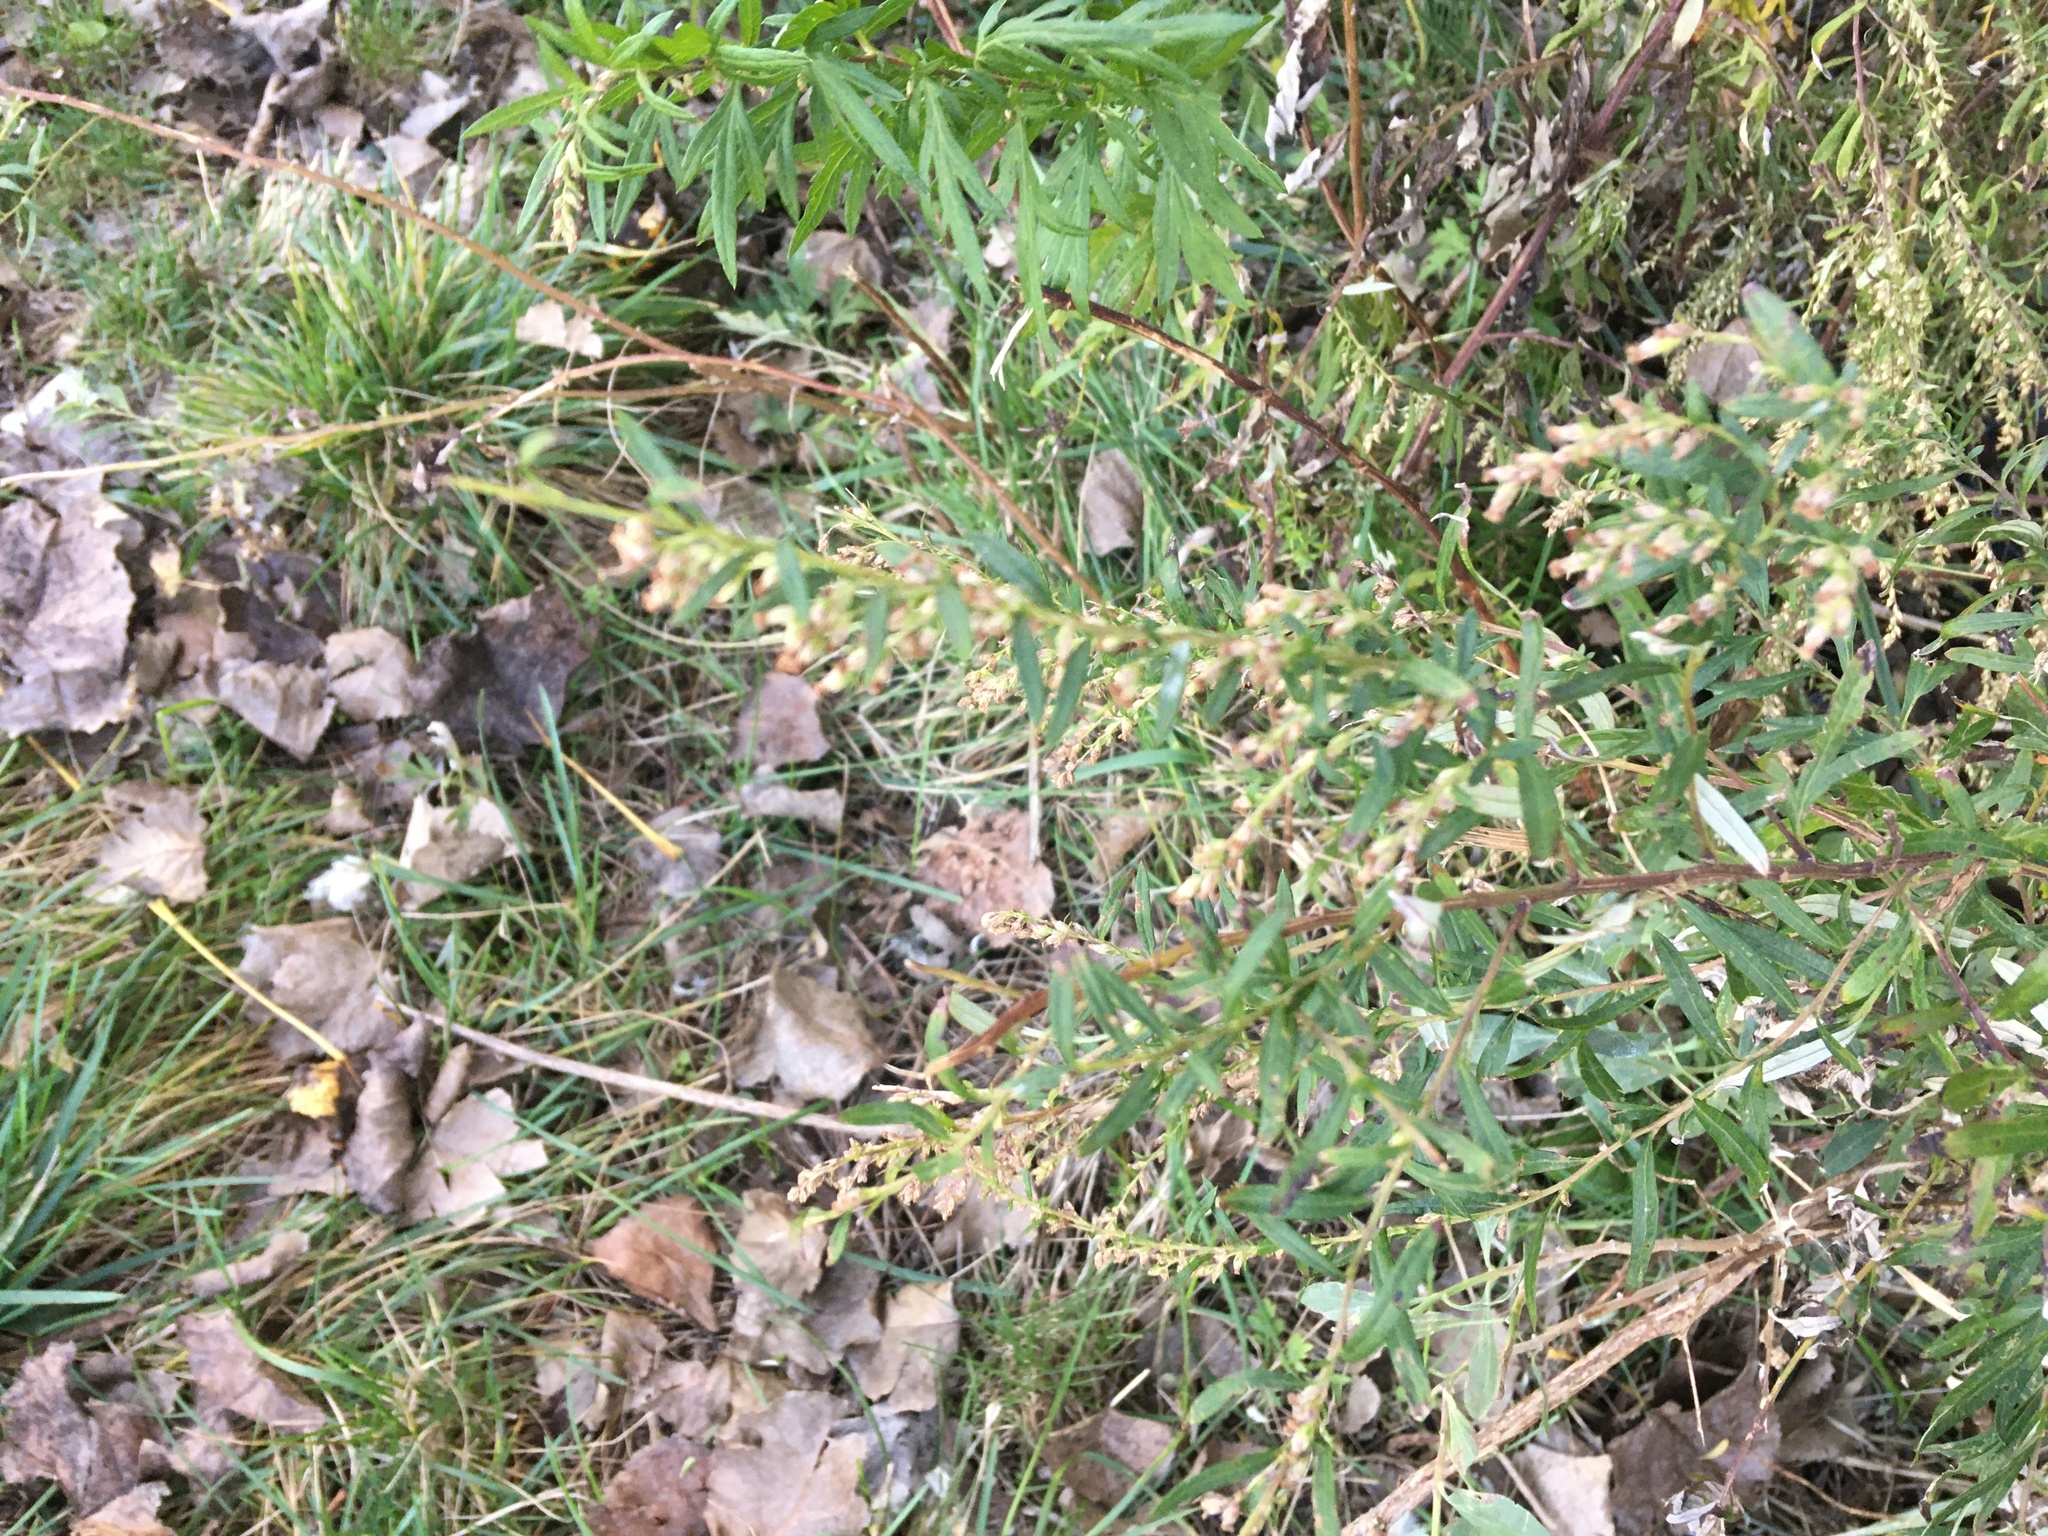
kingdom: Plantae
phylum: Tracheophyta
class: Magnoliopsida
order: Asterales
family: Asteraceae
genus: Artemisia
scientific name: Artemisia vulgaris
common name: Mugwort
